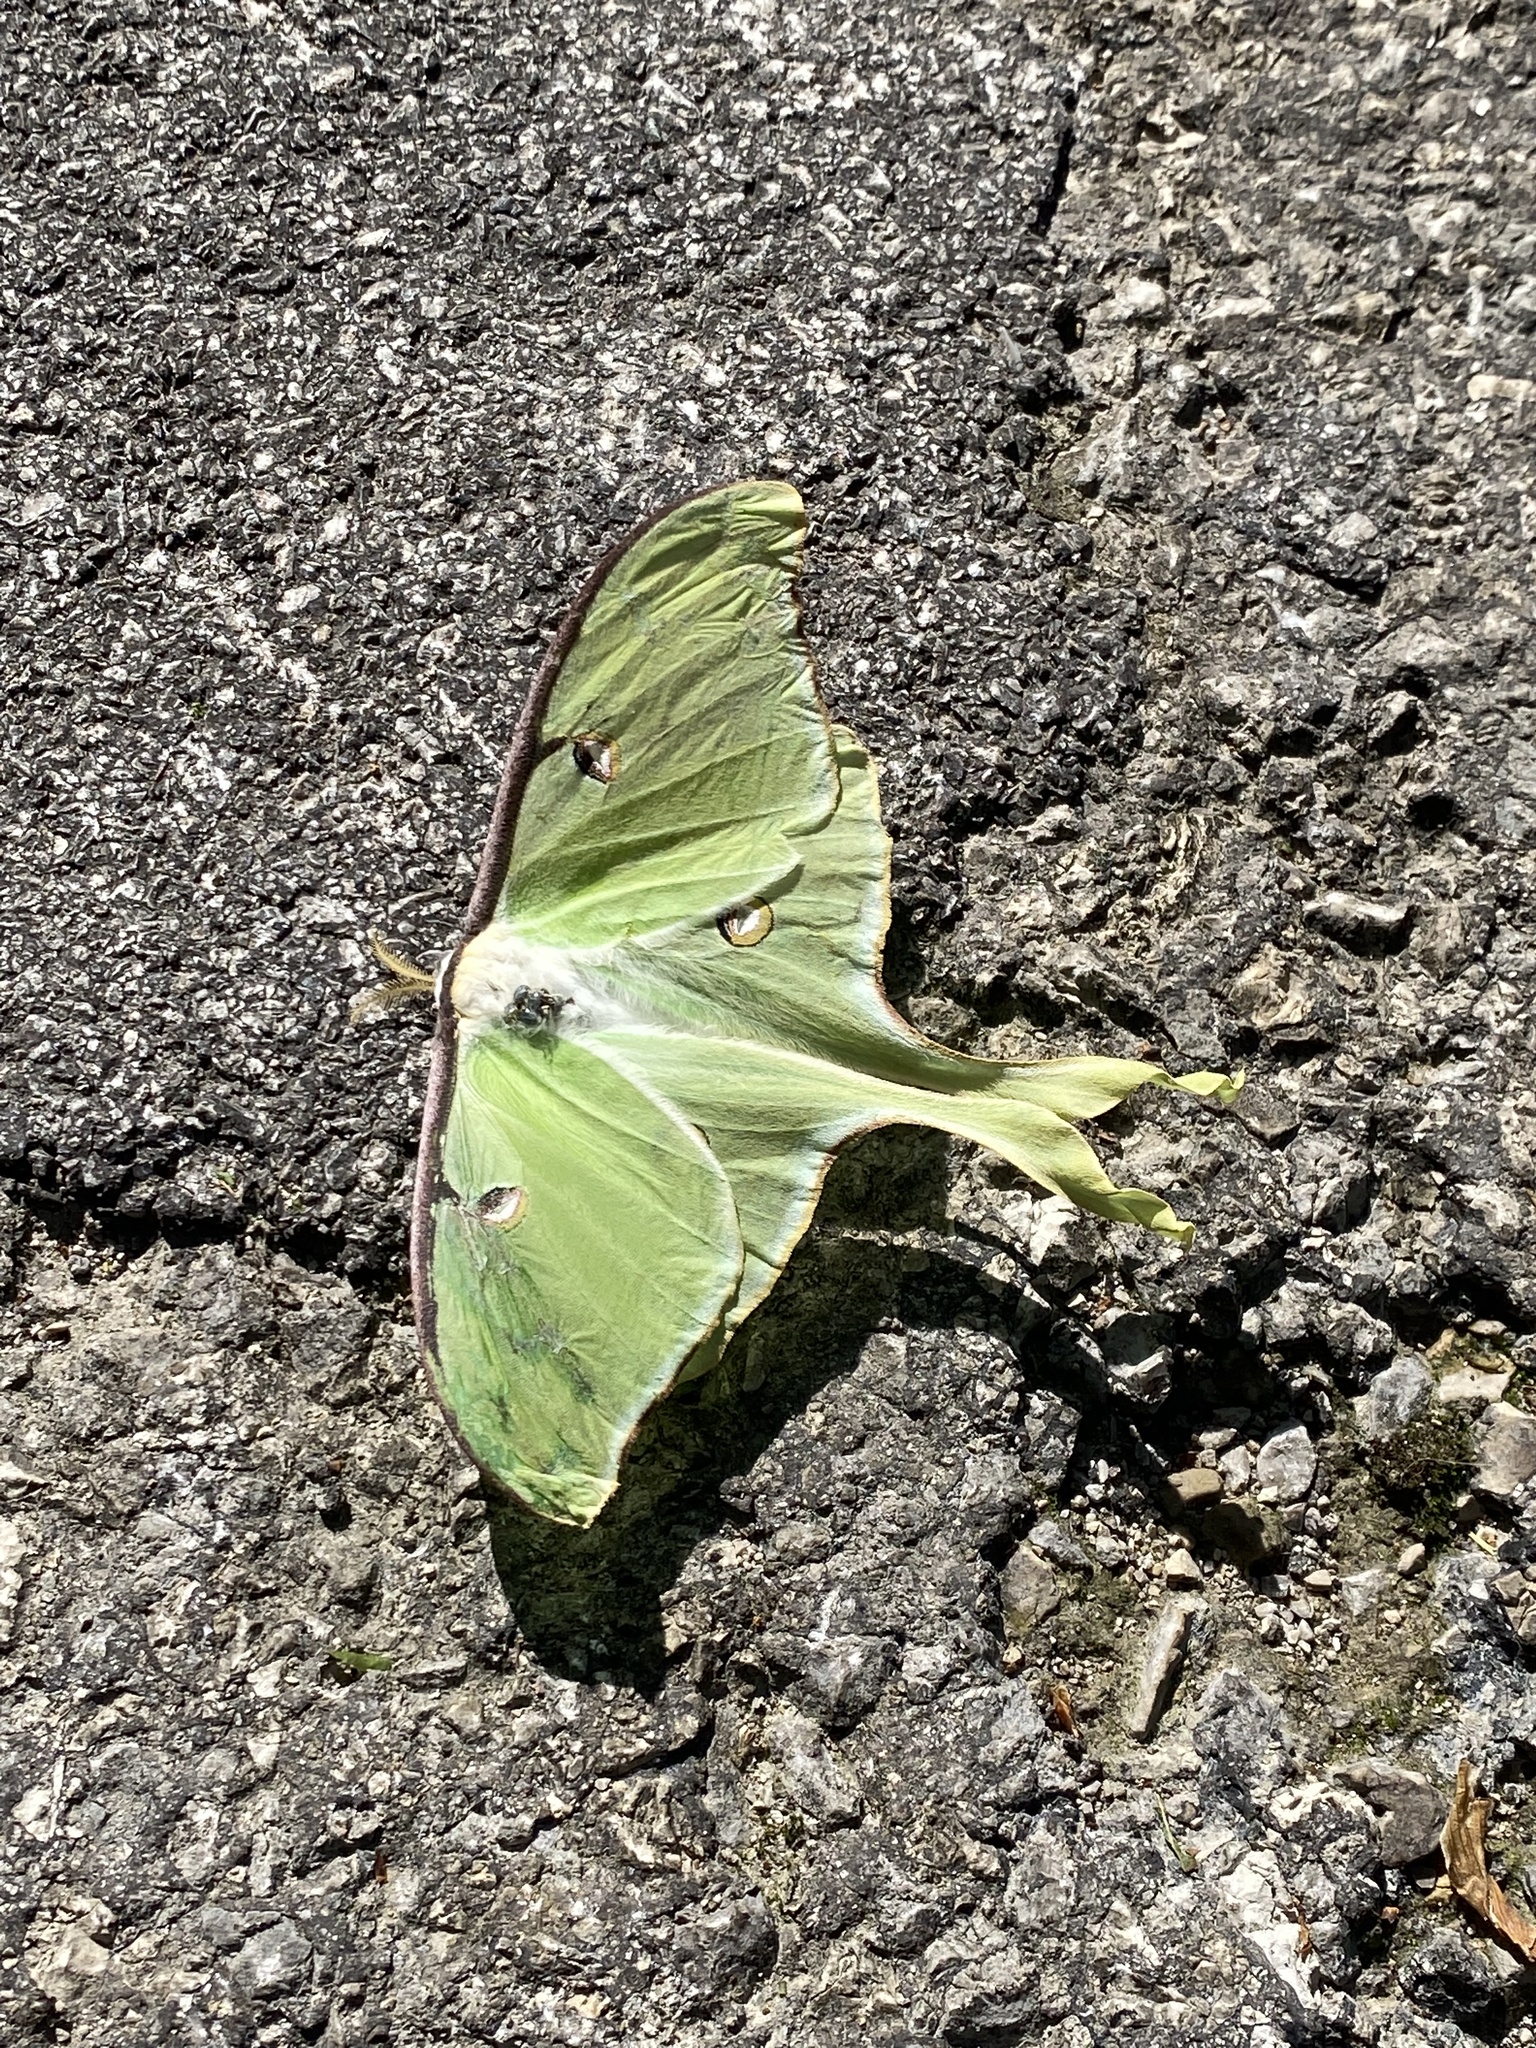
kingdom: Animalia
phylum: Arthropoda
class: Insecta
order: Lepidoptera
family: Saturniidae
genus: Actias
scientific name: Actias luna
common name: Luna moth
